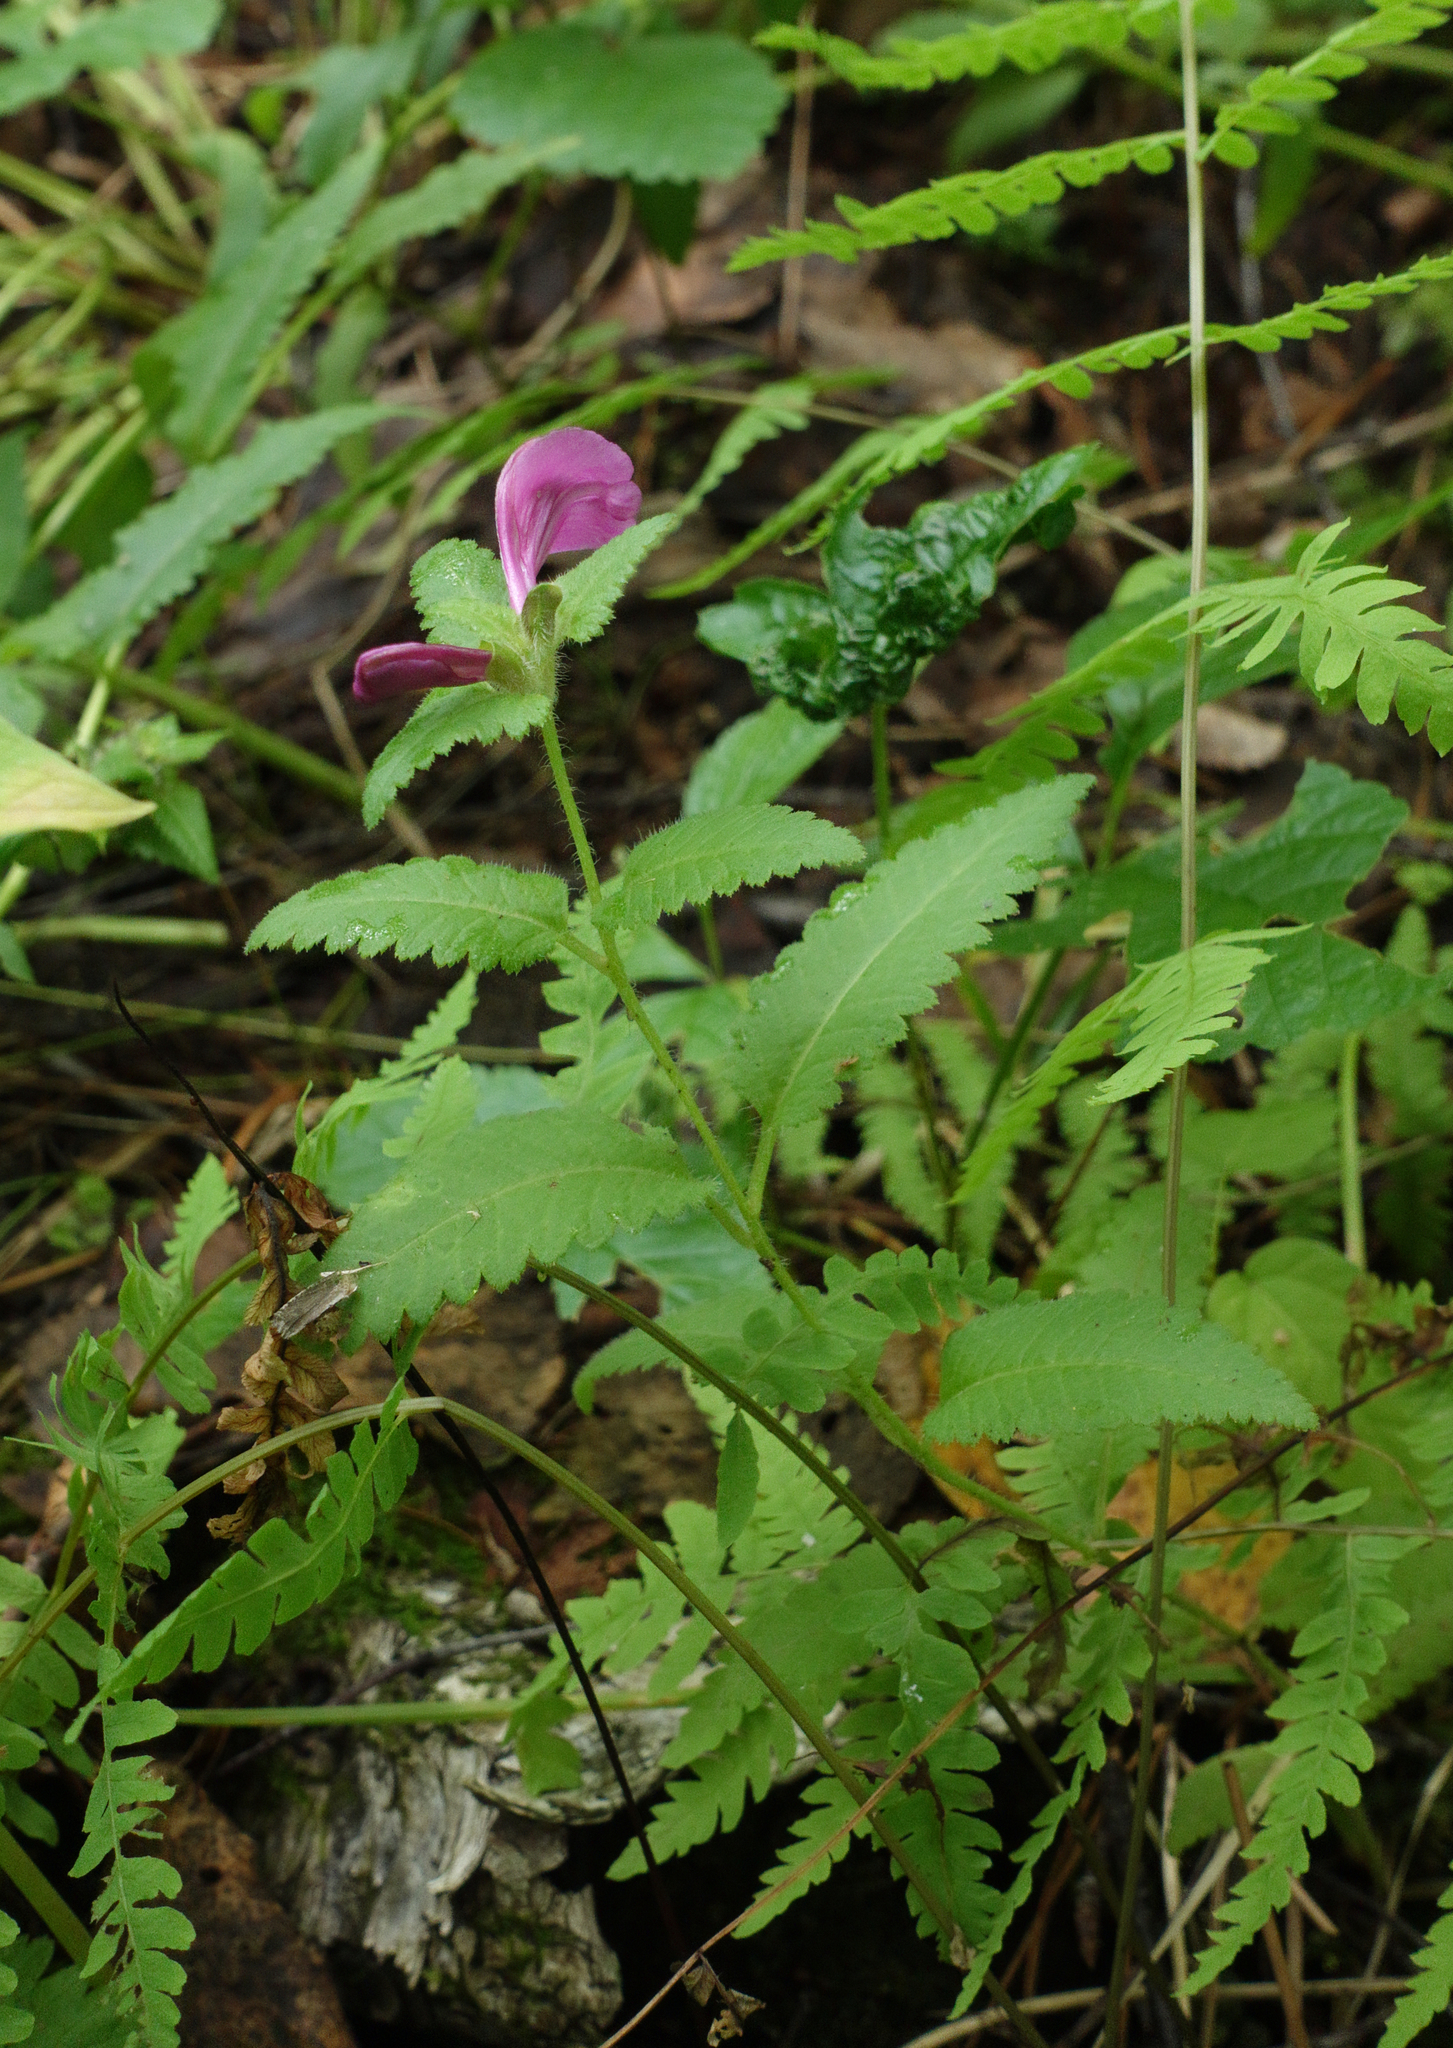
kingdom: Plantae
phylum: Tracheophyta
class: Magnoliopsida
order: Lamiales
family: Orobanchaceae
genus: Pedicularis
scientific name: Pedicularis resupinata
